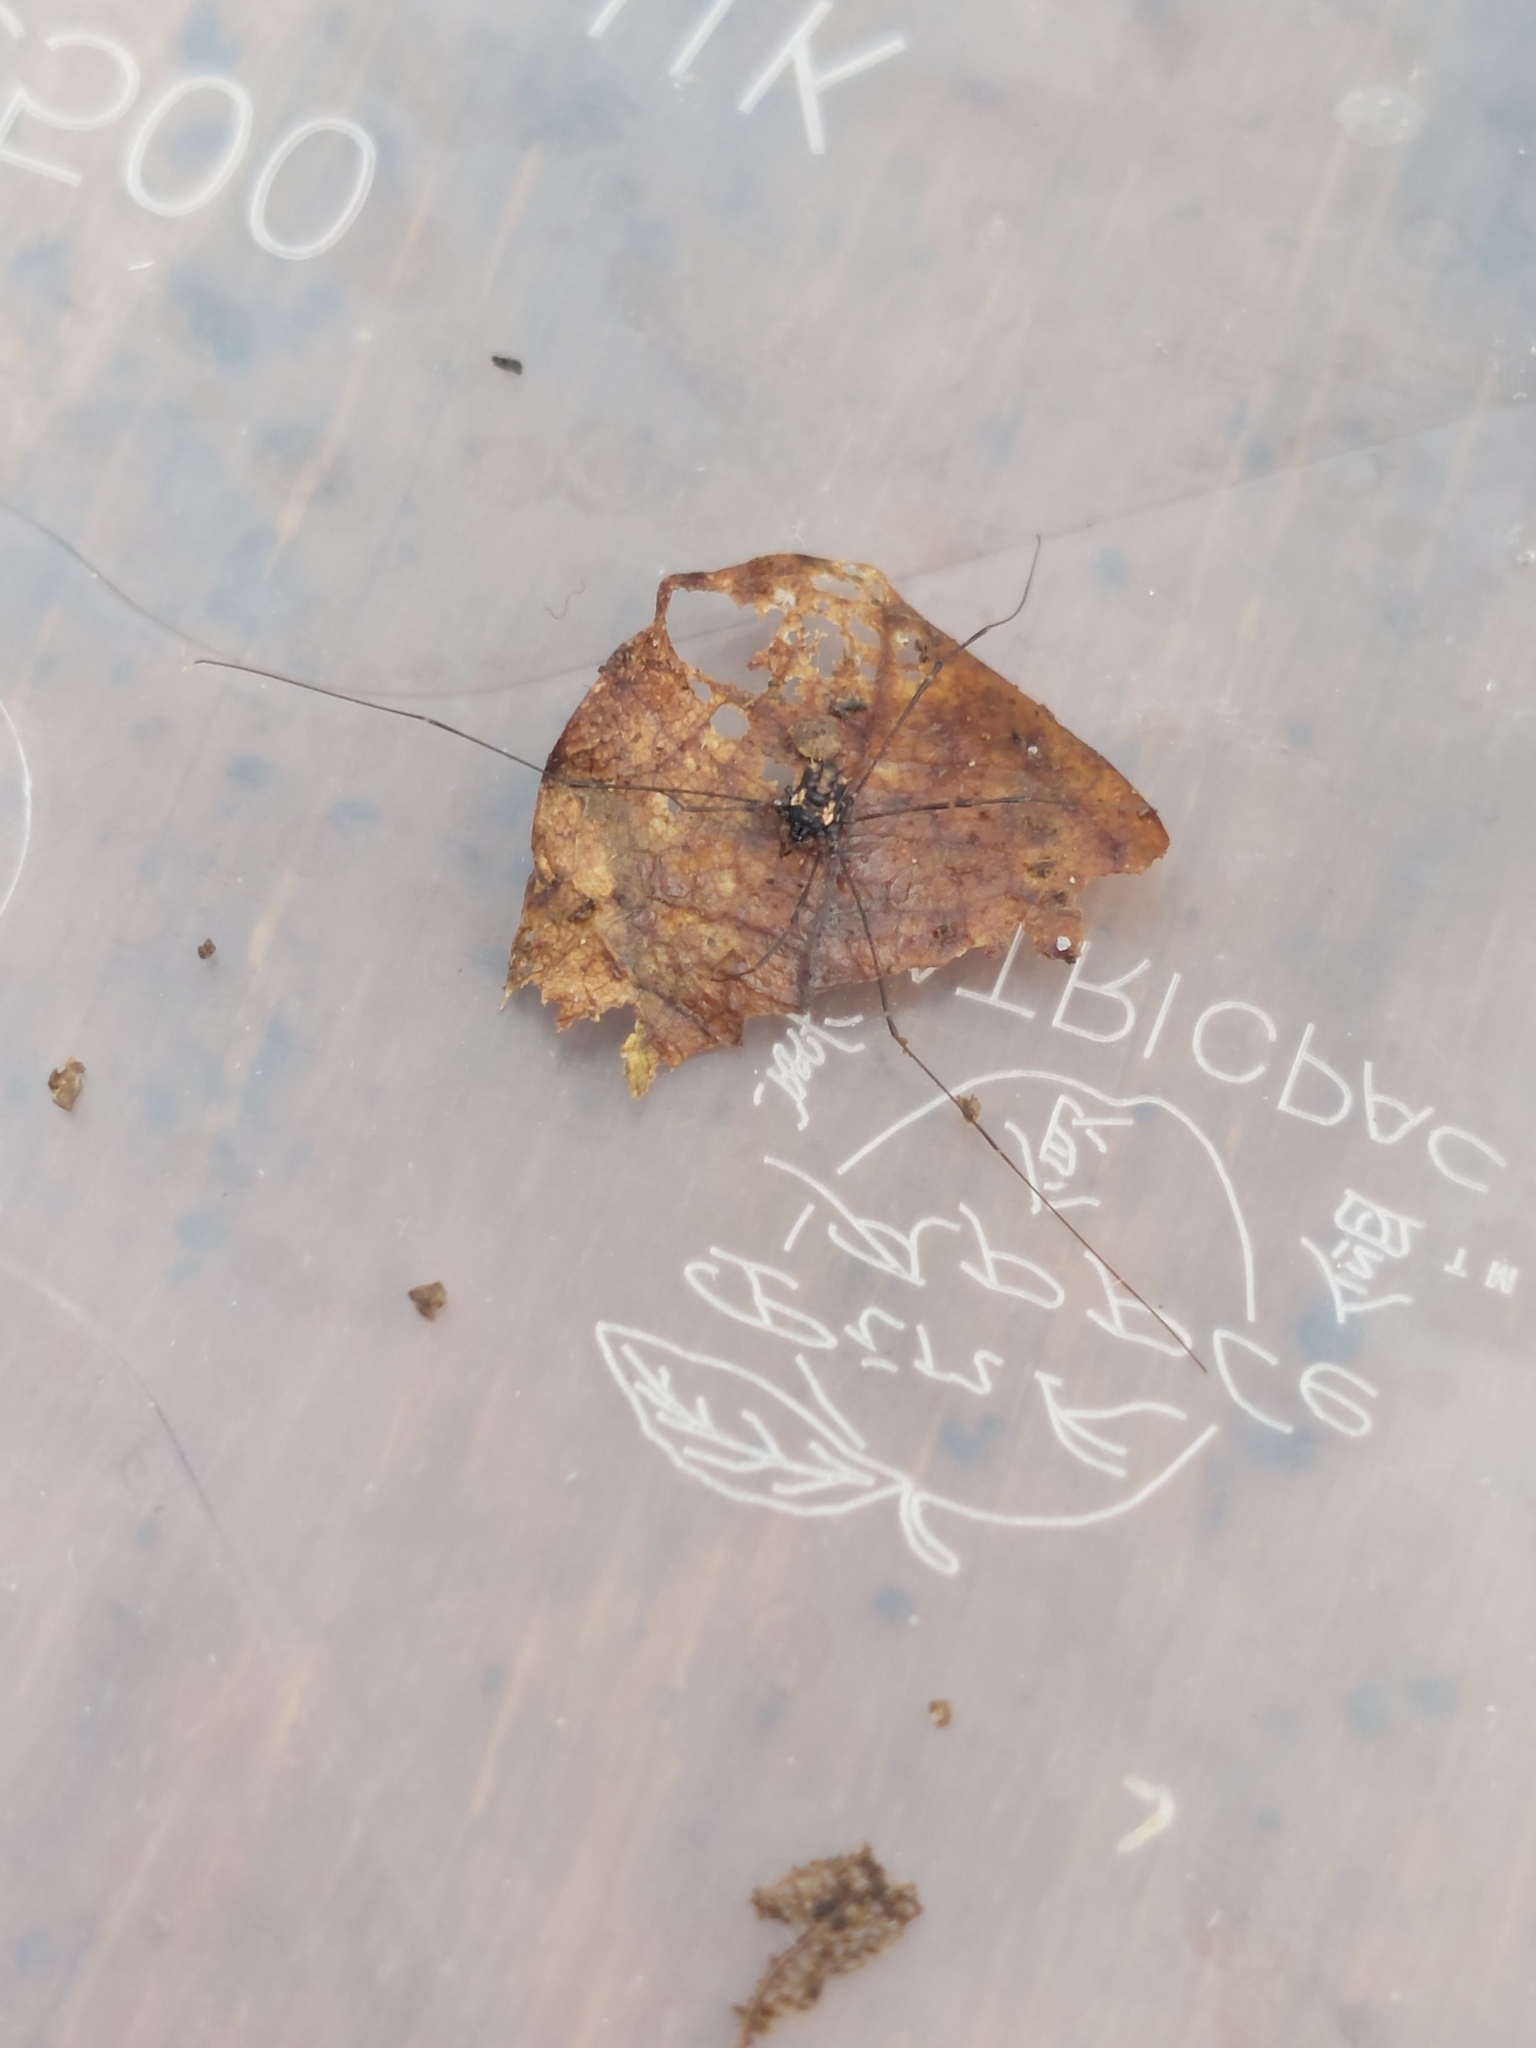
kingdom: Animalia
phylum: Arthropoda
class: Arachnida
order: Opiliones
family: Nemastomatidae
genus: Nemastomella
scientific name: Nemastomella bacillifera
